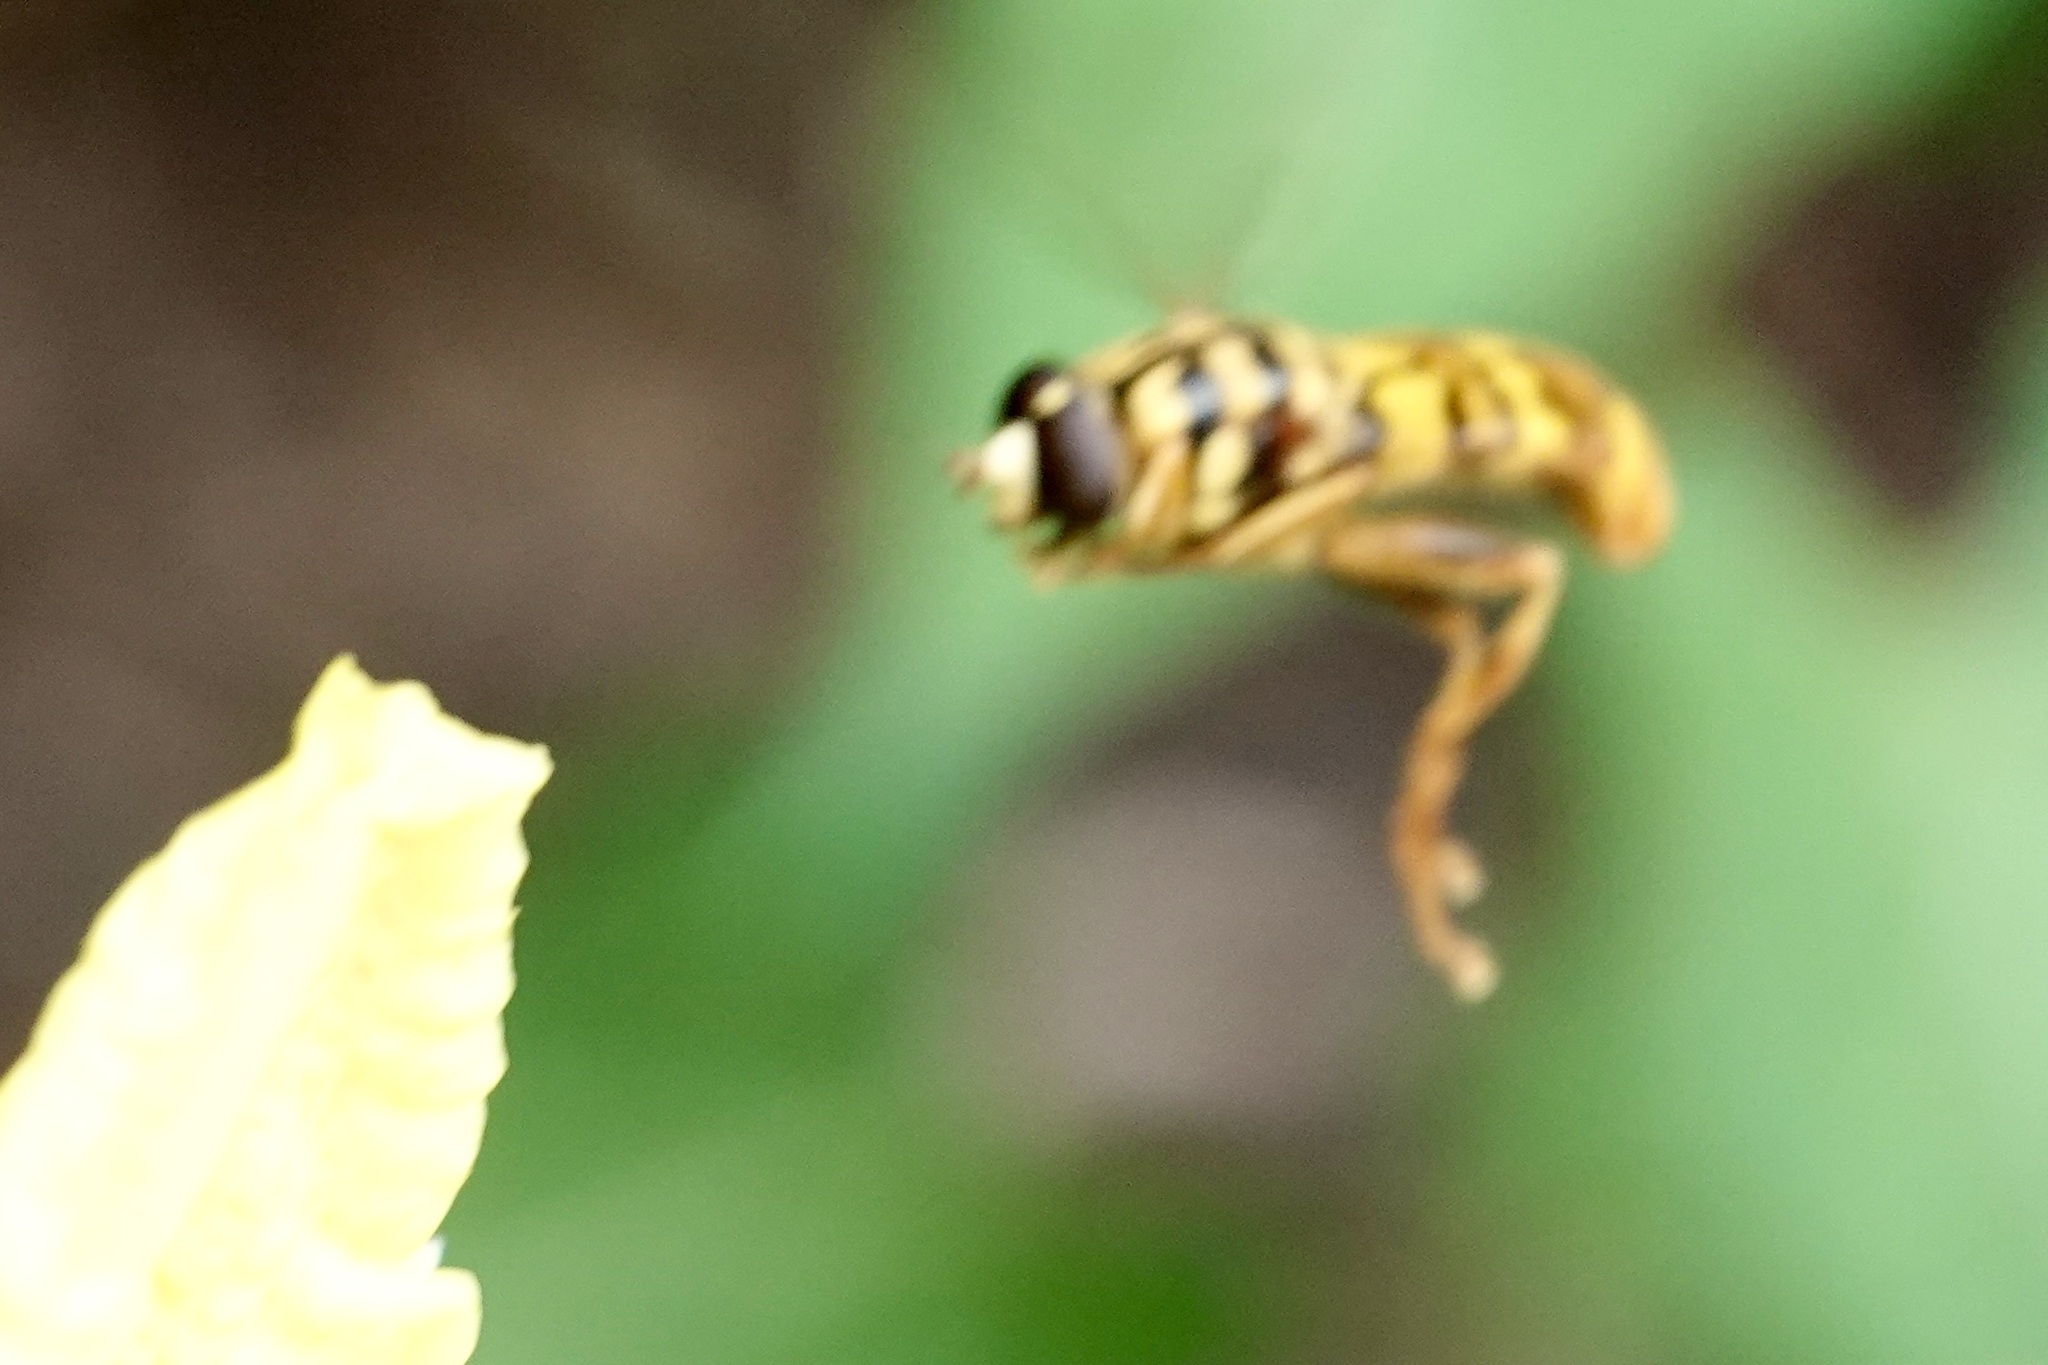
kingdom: Animalia
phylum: Arthropoda
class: Insecta
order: Diptera
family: Syrphidae
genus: Milesia
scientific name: Milesia virginiensis
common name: Virginia giant
